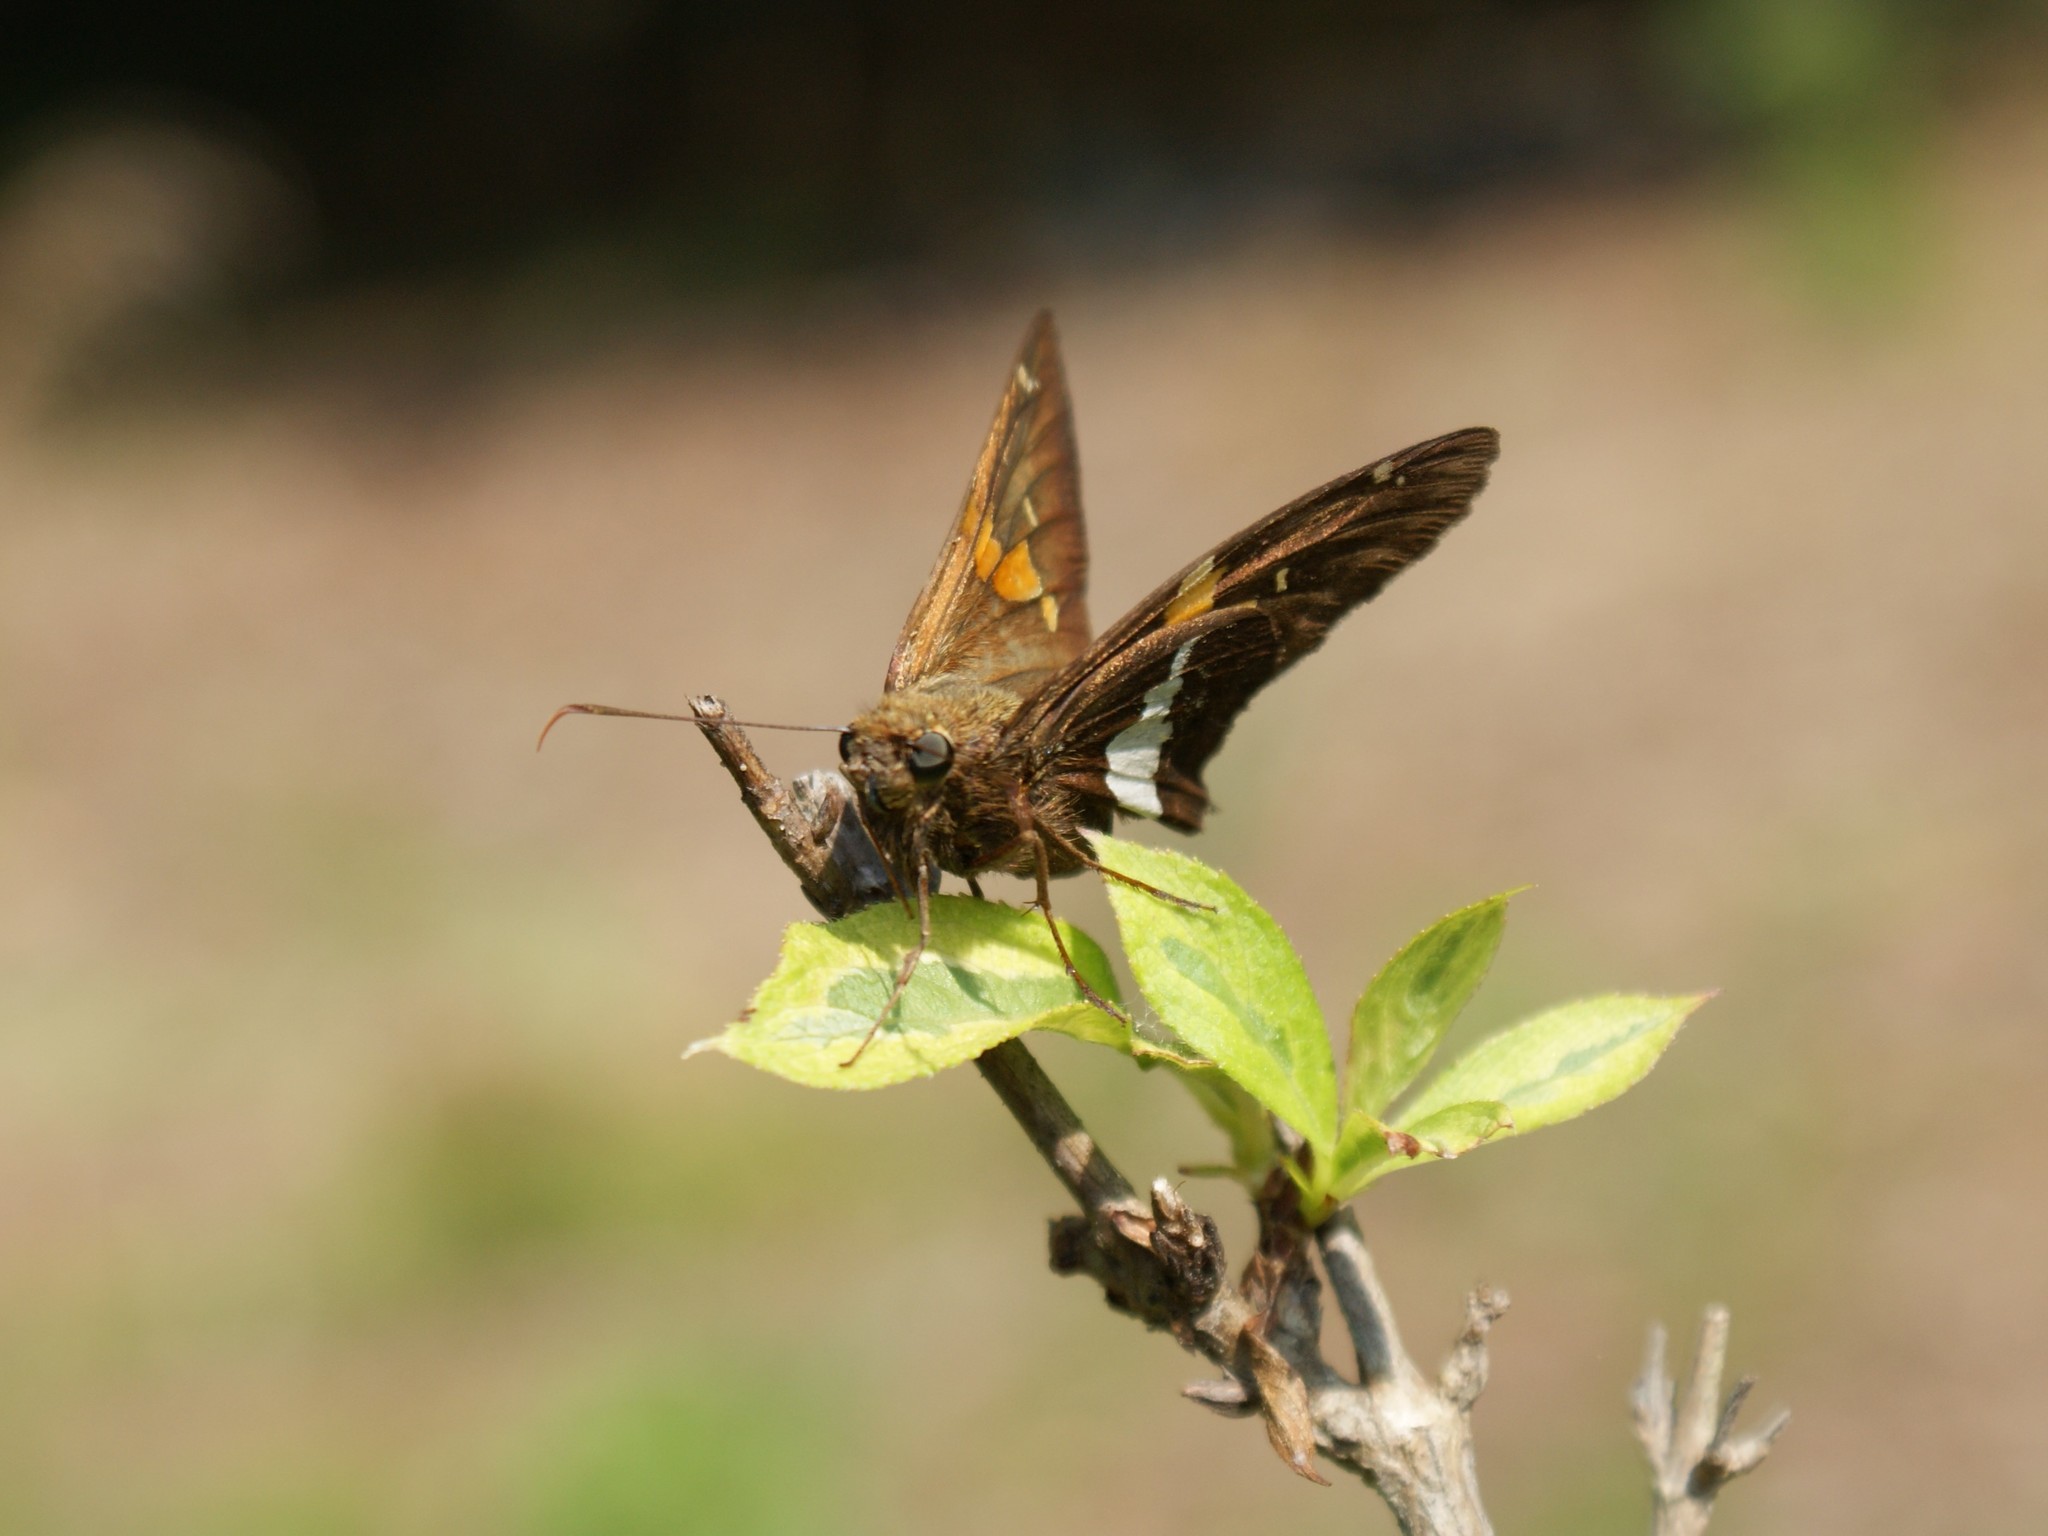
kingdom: Animalia
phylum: Arthropoda
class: Insecta
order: Lepidoptera
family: Hesperiidae
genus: Epargyreus
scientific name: Epargyreus clarus
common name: Silver-spotted skipper
